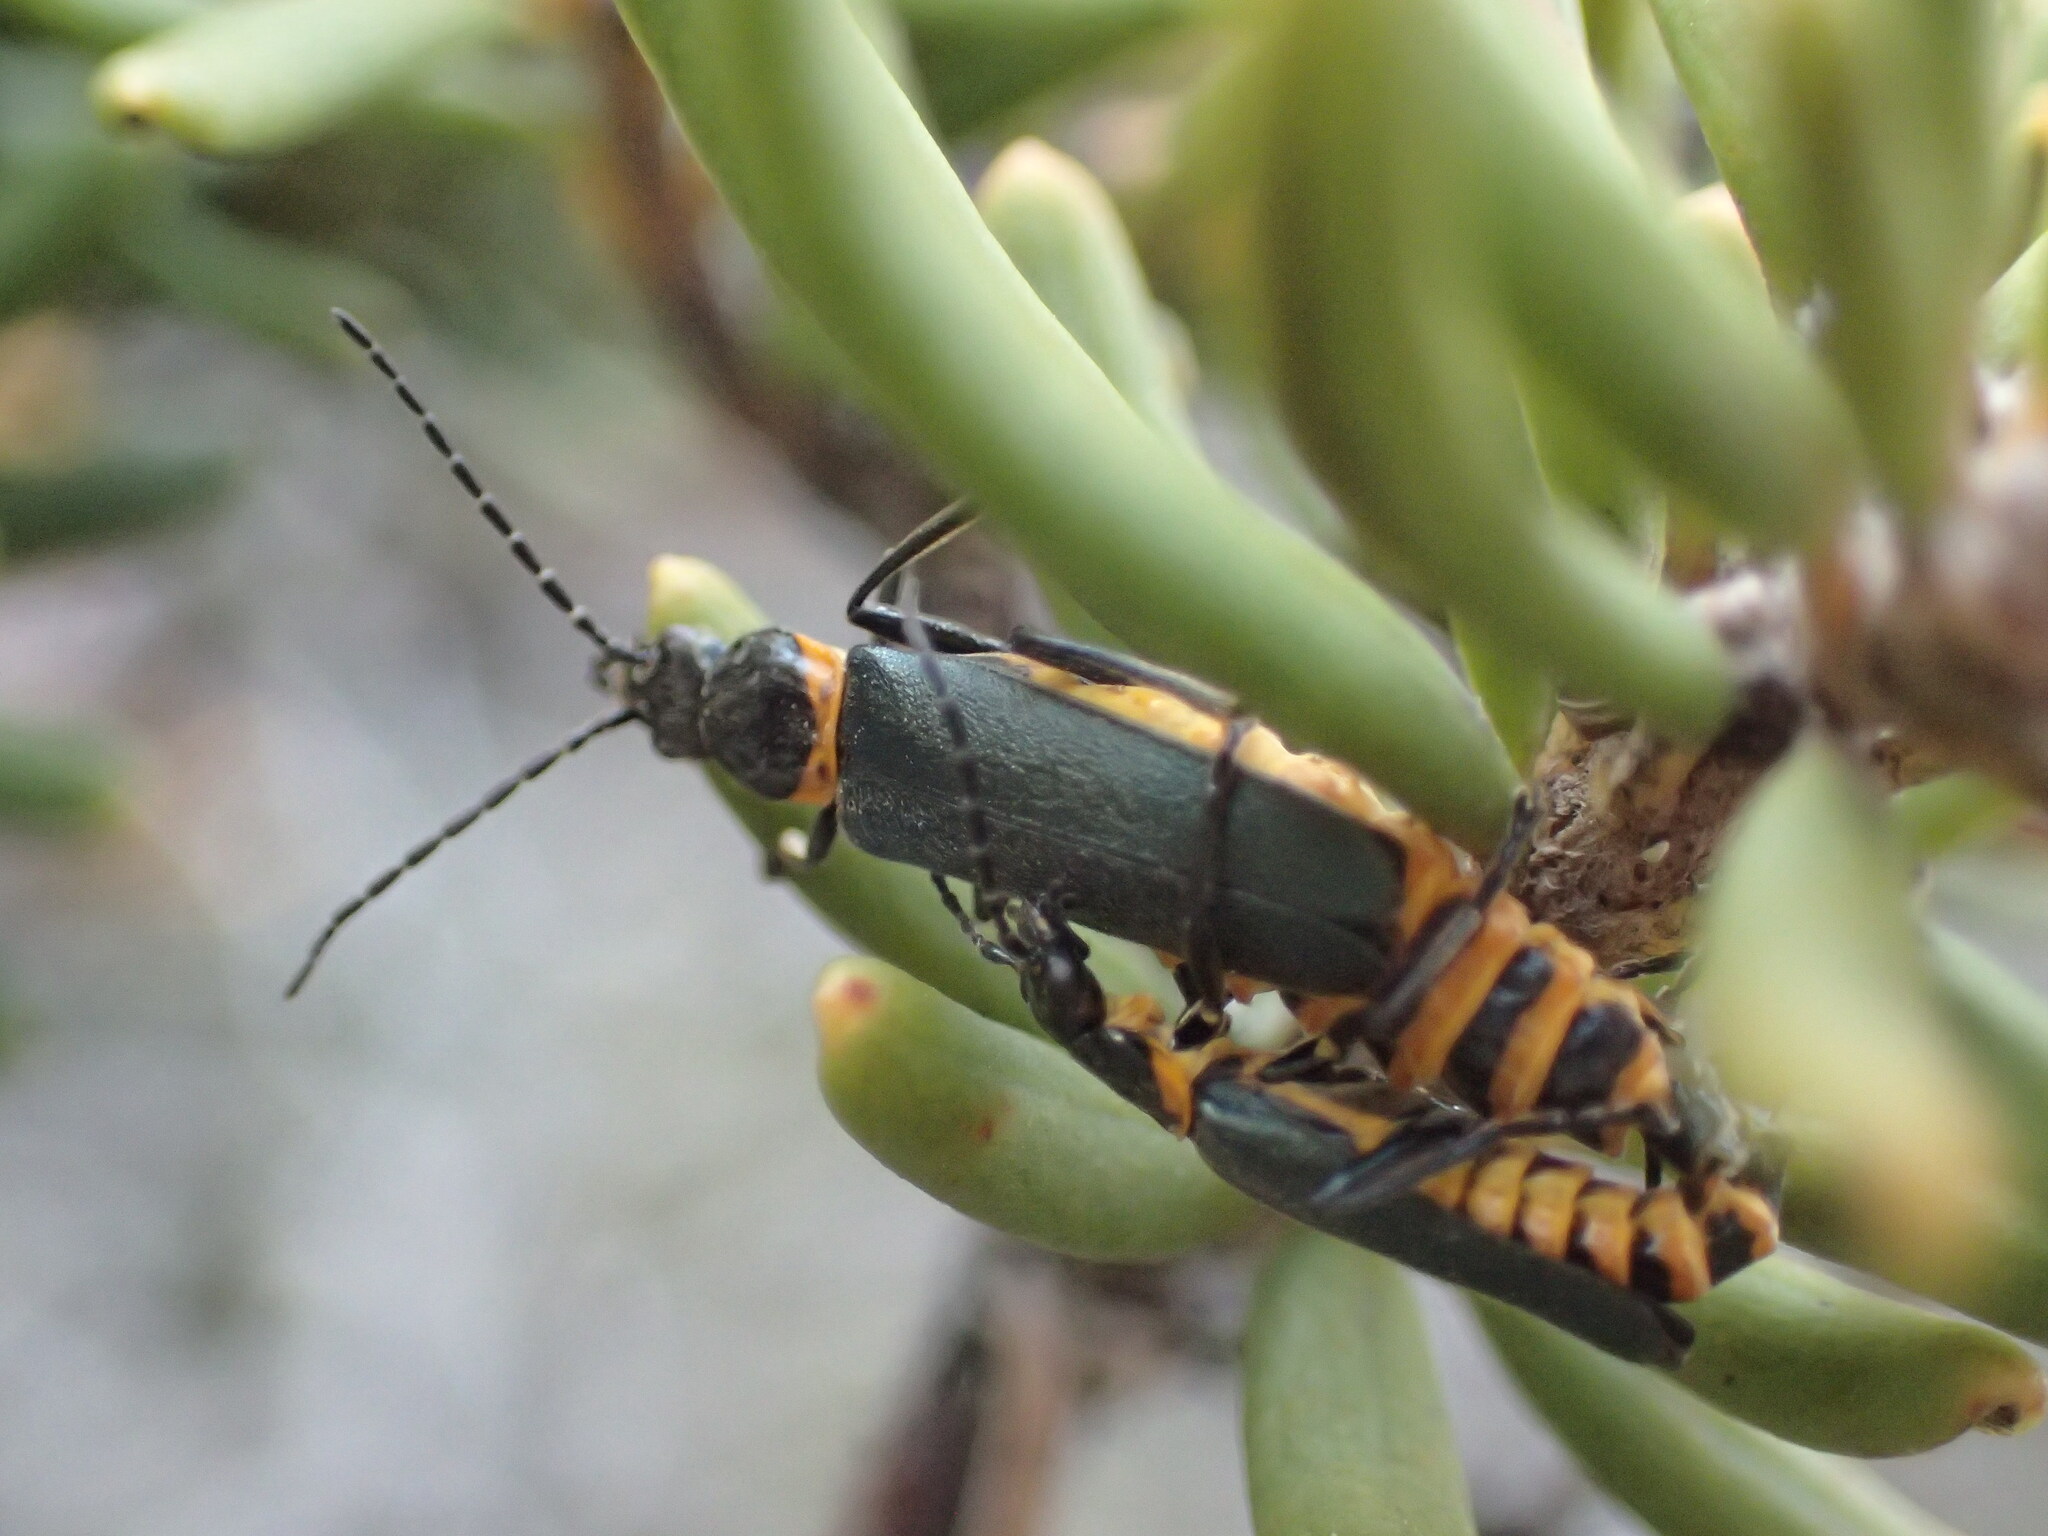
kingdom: Animalia
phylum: Arthropoda
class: Insecta
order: Coleoptera
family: Cantharidae
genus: Chauliognathus
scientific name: Chauliognathus
